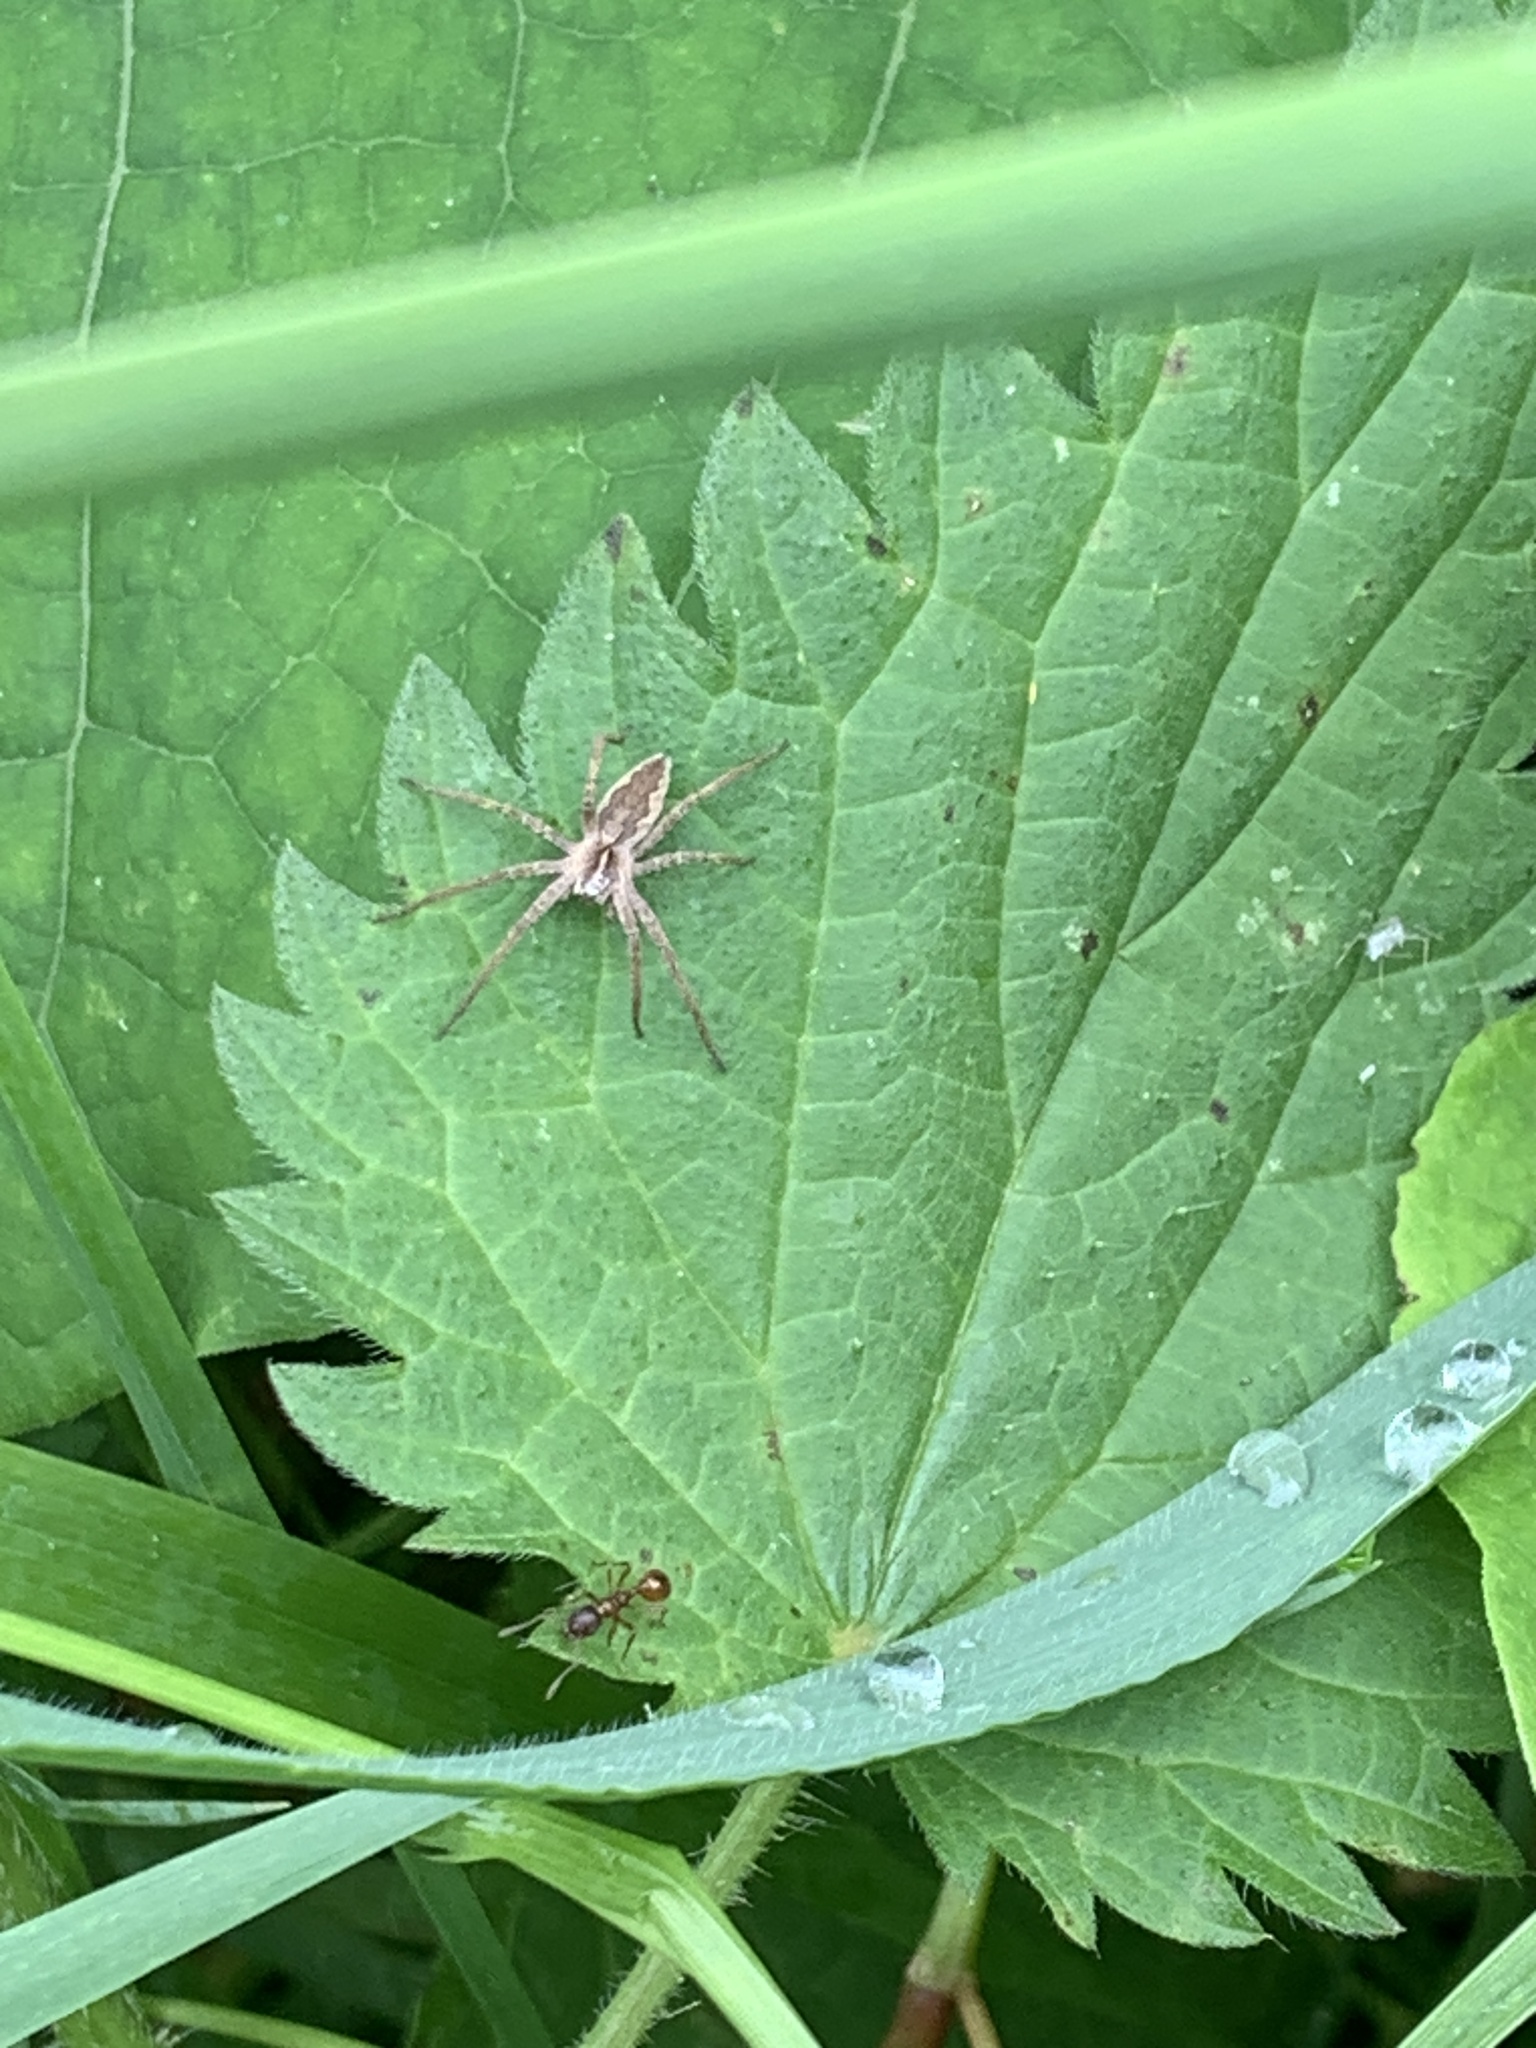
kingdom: Animalia
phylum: Arthropoda
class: Arachnida
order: Araneae
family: Pisauridae
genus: Pisaura
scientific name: Pisaura mirabilis
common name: Tent spider
